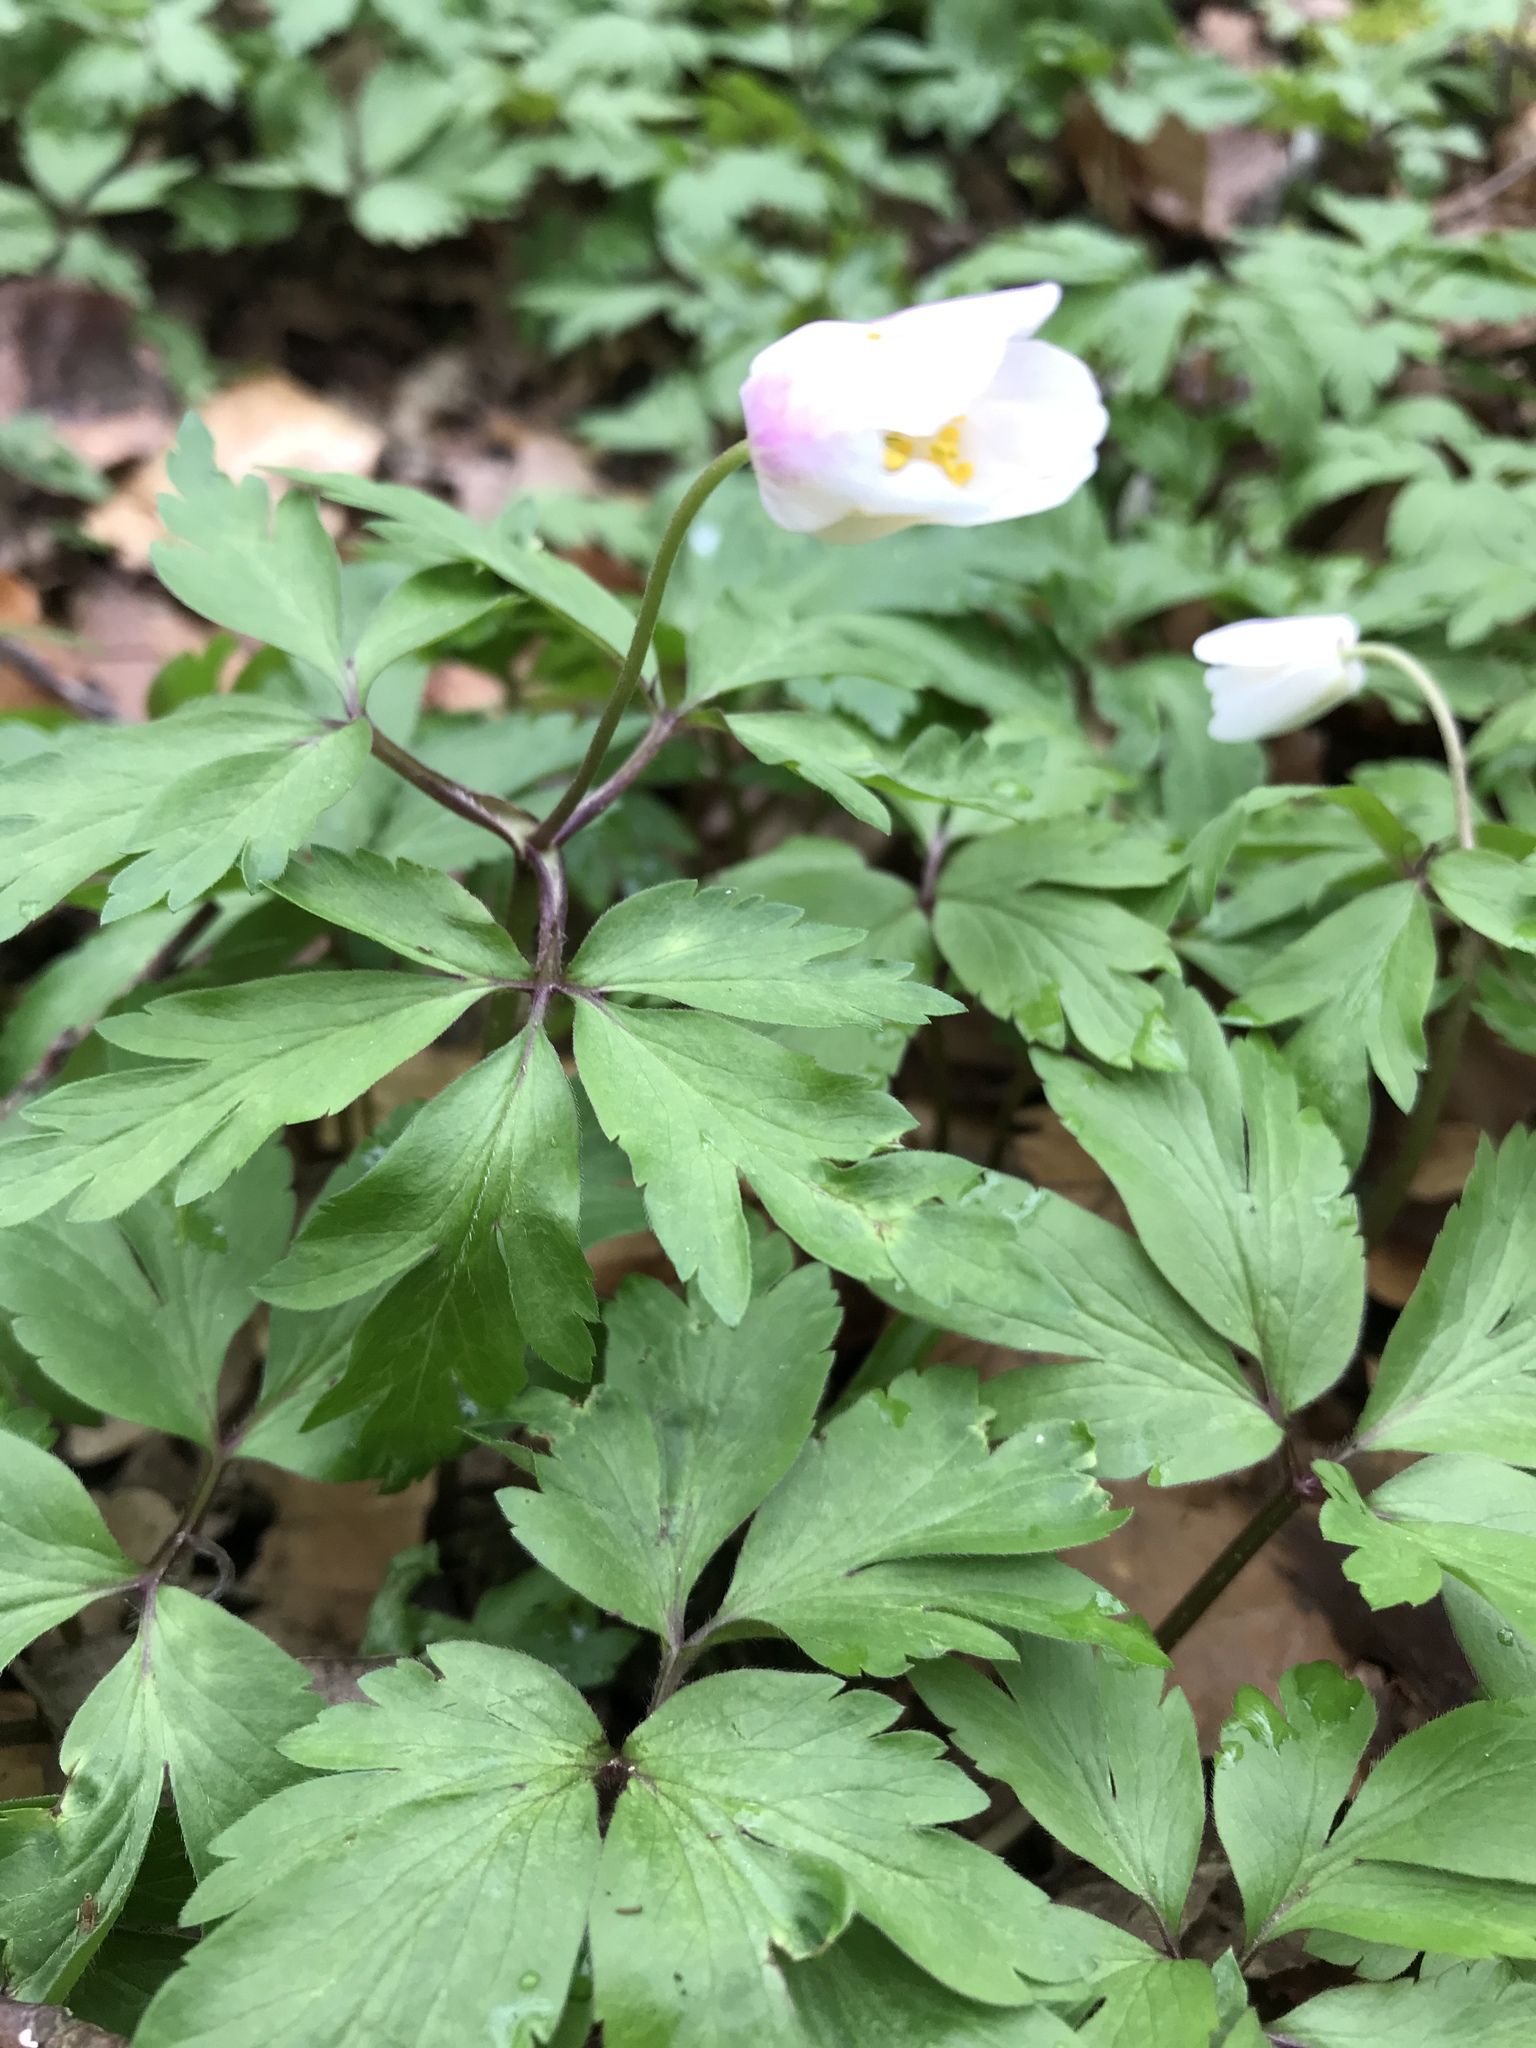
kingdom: Plantae
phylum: Tracheophyta
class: Magnoliopsida
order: Ranunculales
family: Ranunculaceae
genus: Anemone
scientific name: Anemone nemorosa
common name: Wood anemone
